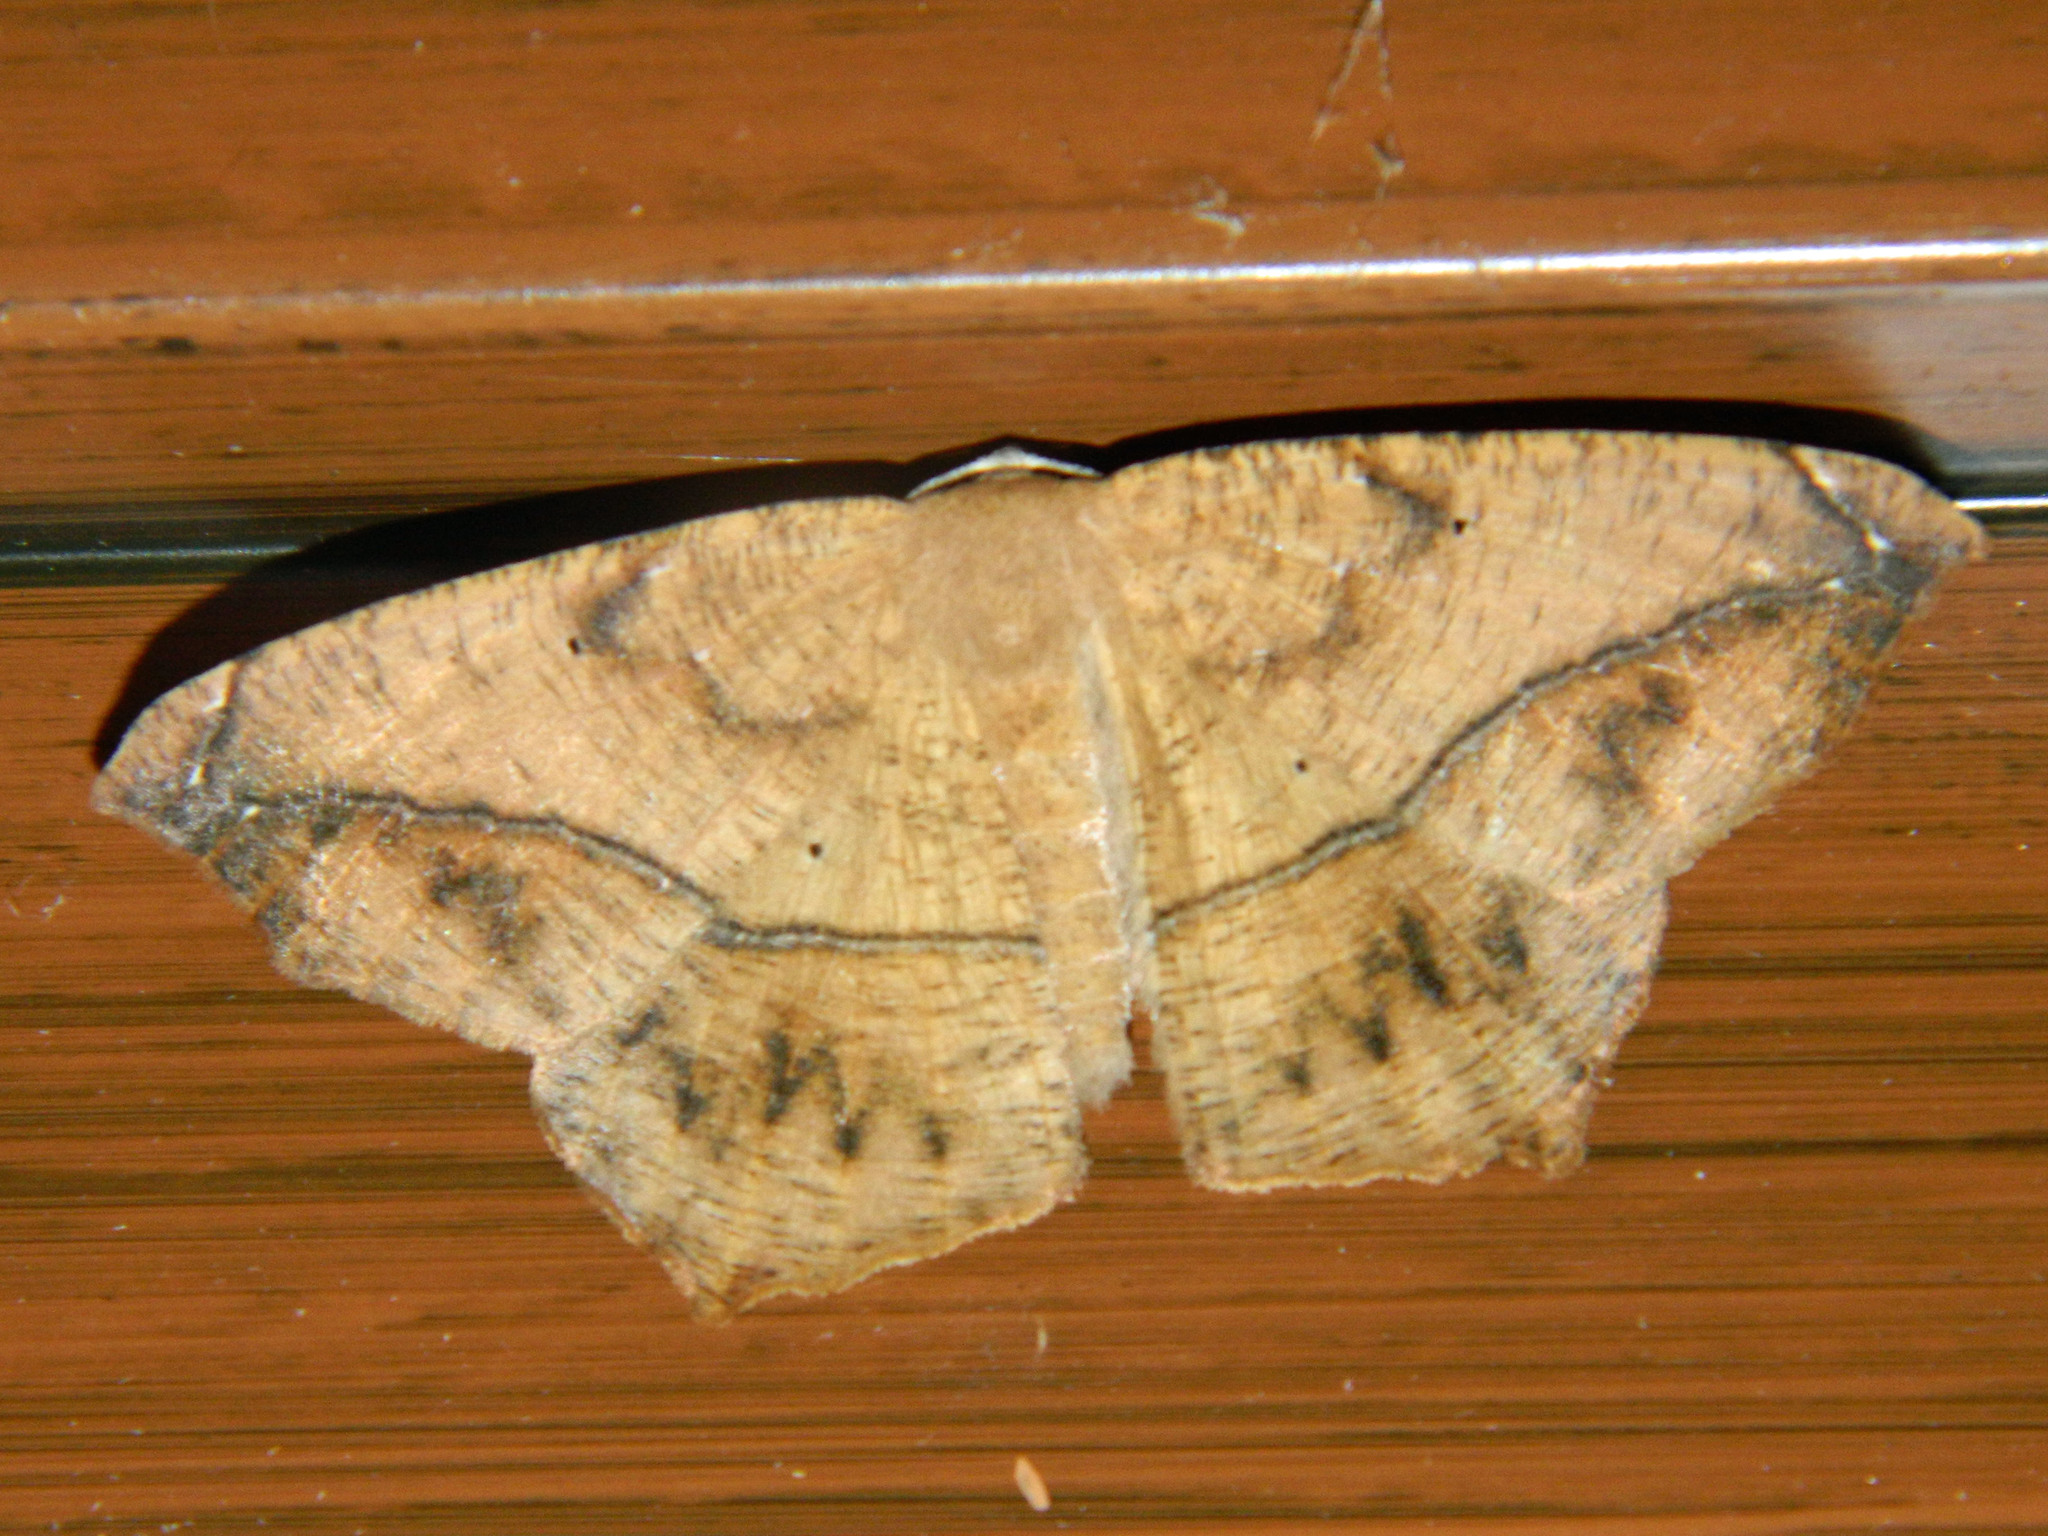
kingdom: Animalia
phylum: Arthropoda
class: Insecta
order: Lepidoptera
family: Geometridae
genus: Prochoerodes
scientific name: Prochoerodes lineola
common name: Large maple spanworm
